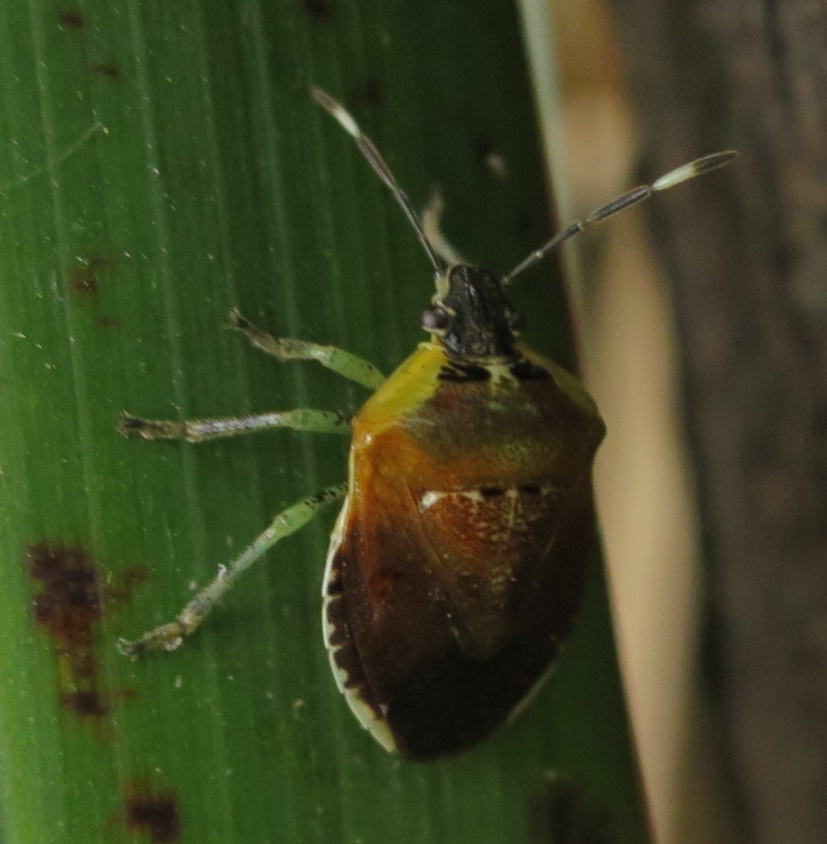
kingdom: Animalia
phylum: Arthropoda
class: Insecta
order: Hemiptera
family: Pentatomidae
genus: Monteithiella
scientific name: Monteithiella
